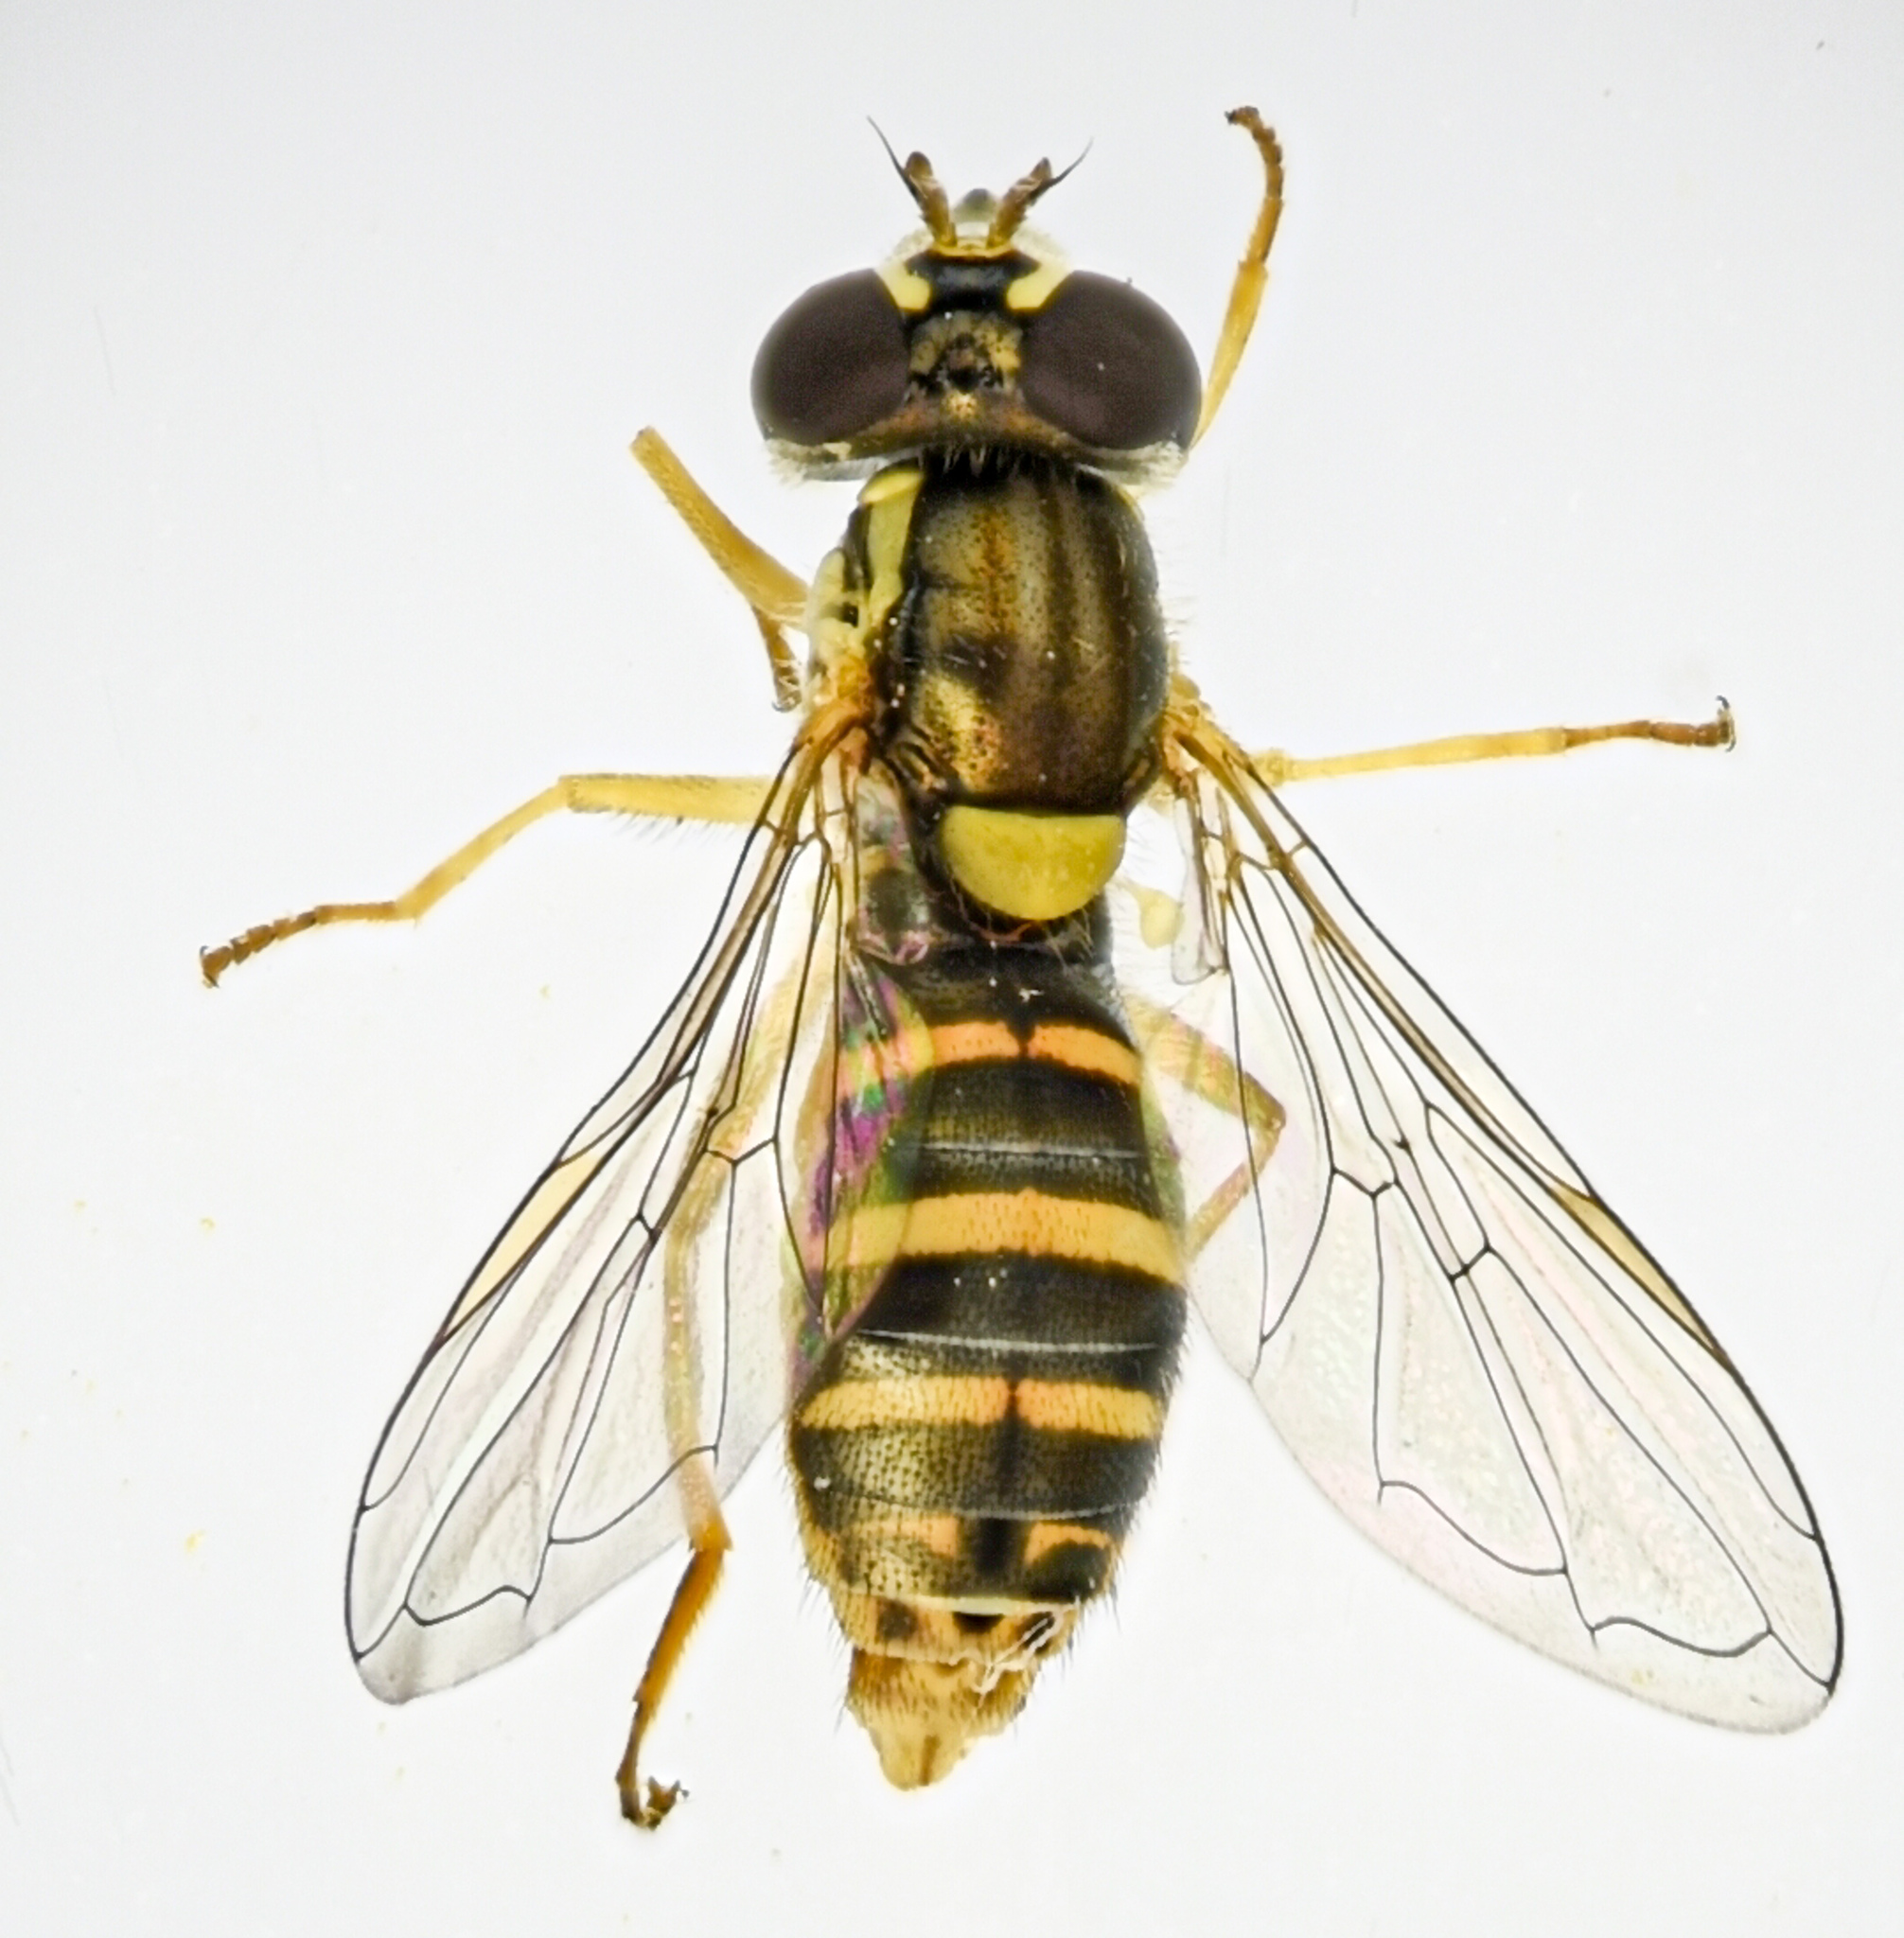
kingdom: Animalia
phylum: Arthropoda
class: Insecta
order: Diptera
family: Syrphidae
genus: Sphaerophoria
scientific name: Sphaerophoria sulphuripes
